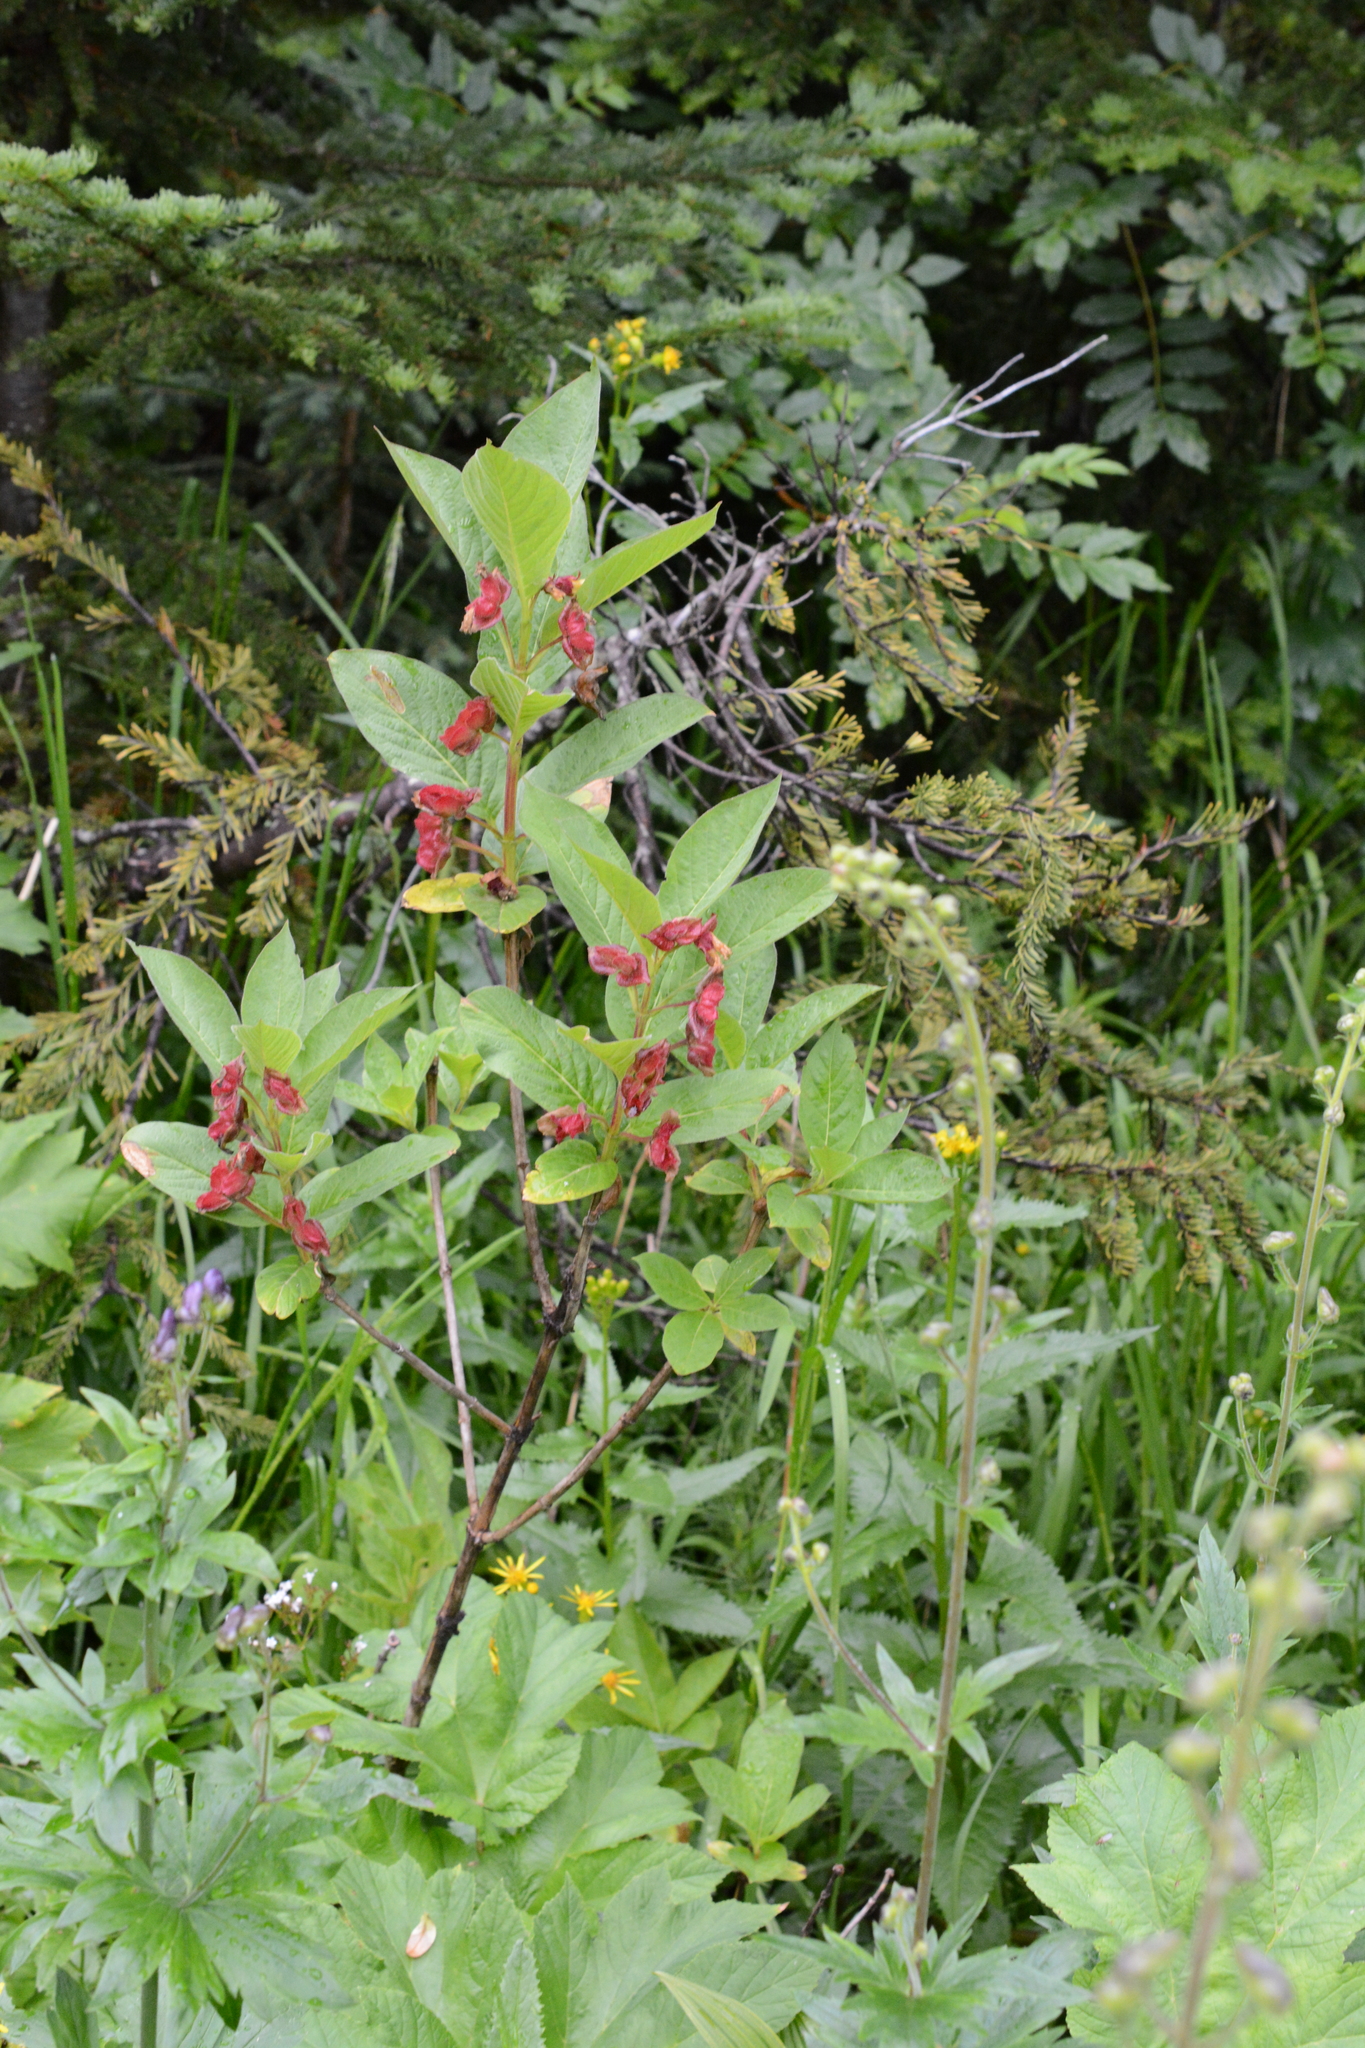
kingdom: Plantae
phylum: Tracheophyta
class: Magnoliopsida
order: Dipsacales
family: Caprifoliaceae
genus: Lonicera
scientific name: Lonicera involucrata
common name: Californian honeysuckle
